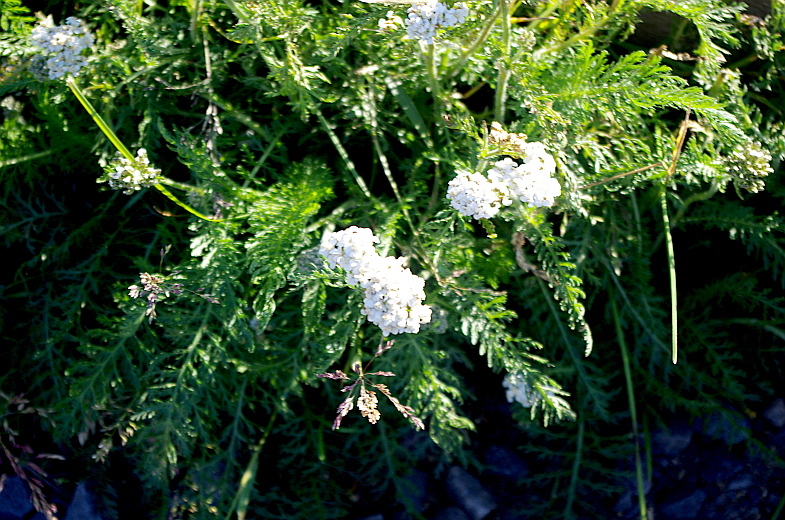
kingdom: Plantae
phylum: Tracheophyta
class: Magnoliopsida
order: Asterales
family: Asteraceae
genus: Achillea
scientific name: Achillea millefolium
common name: Yarrow
